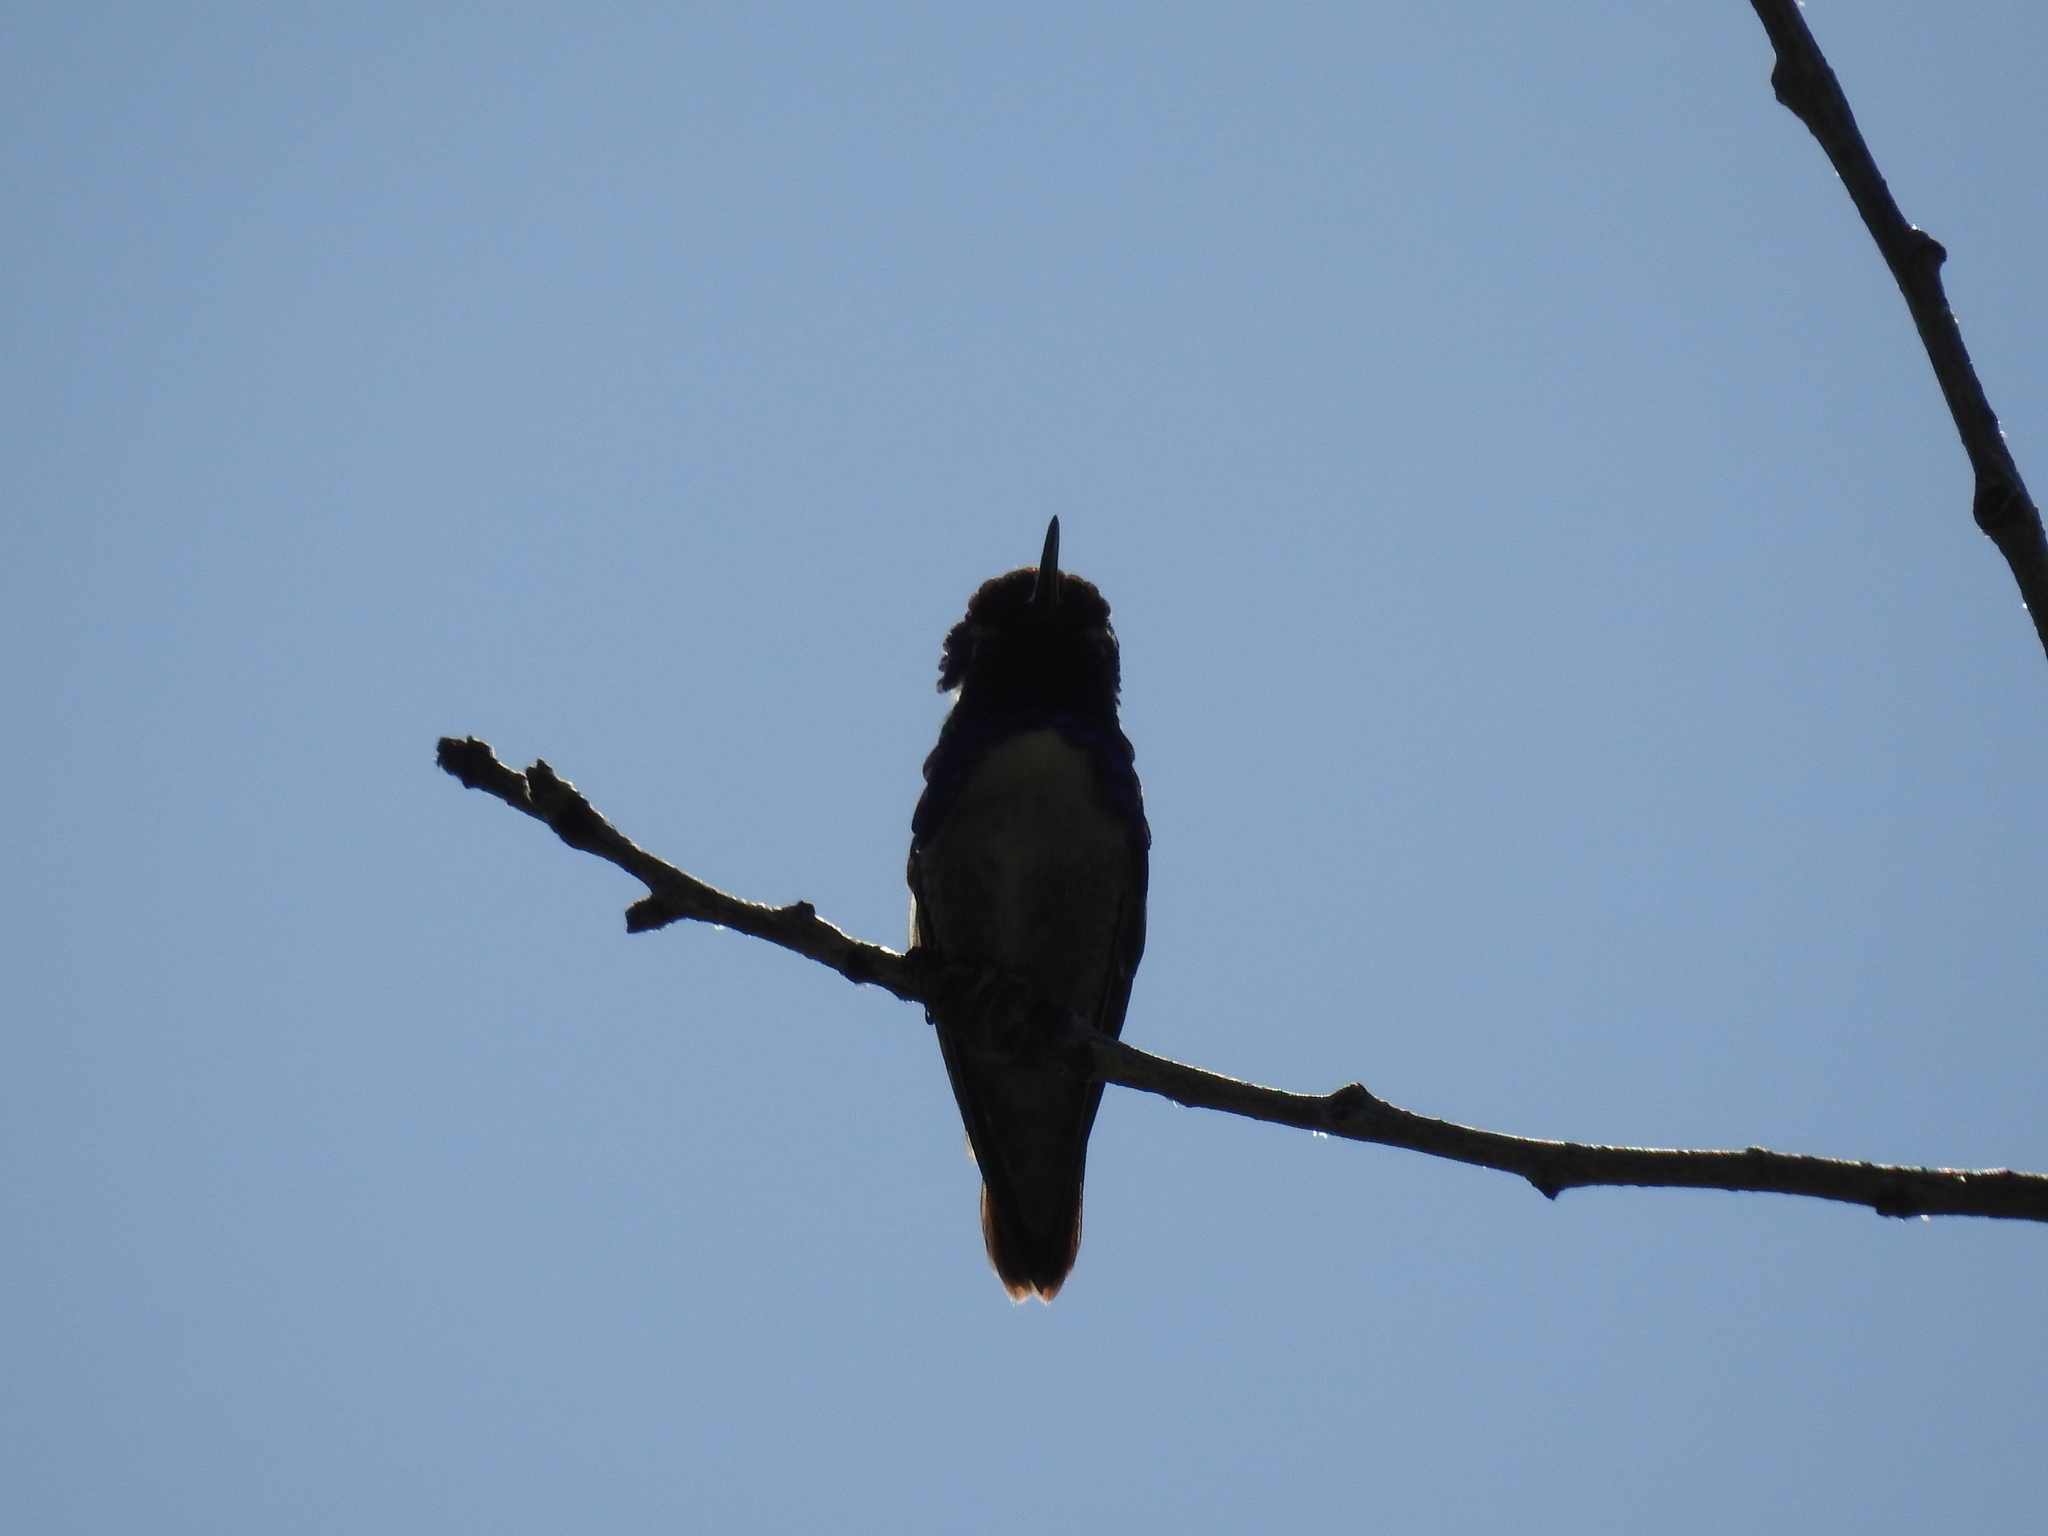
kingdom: Animalia
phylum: Chordata
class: Aves
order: Apodiformes
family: Trochilidae
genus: Calypte
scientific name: Calypte costae
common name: Costa's hummingbird
